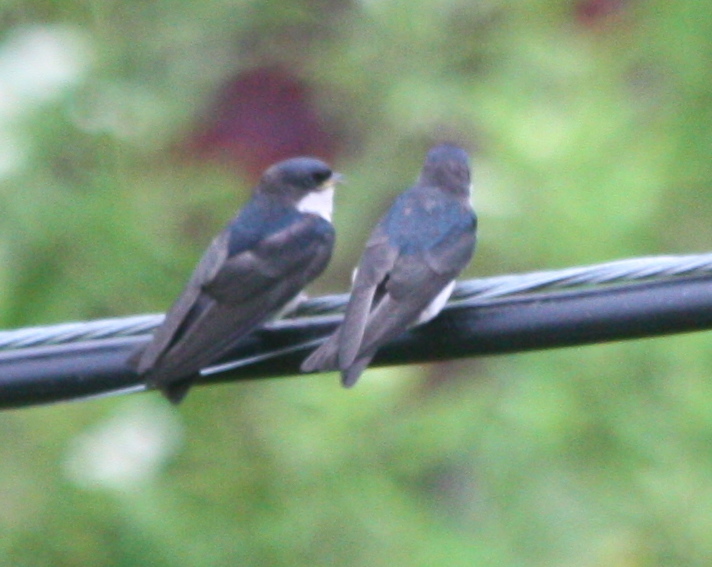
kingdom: Animalia
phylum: Chordata
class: Aves
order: Passeriformes
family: Hirundinidae
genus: Notiochelidon
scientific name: Notiochelidon cyanoleuca
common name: Blue-and-white swallow
